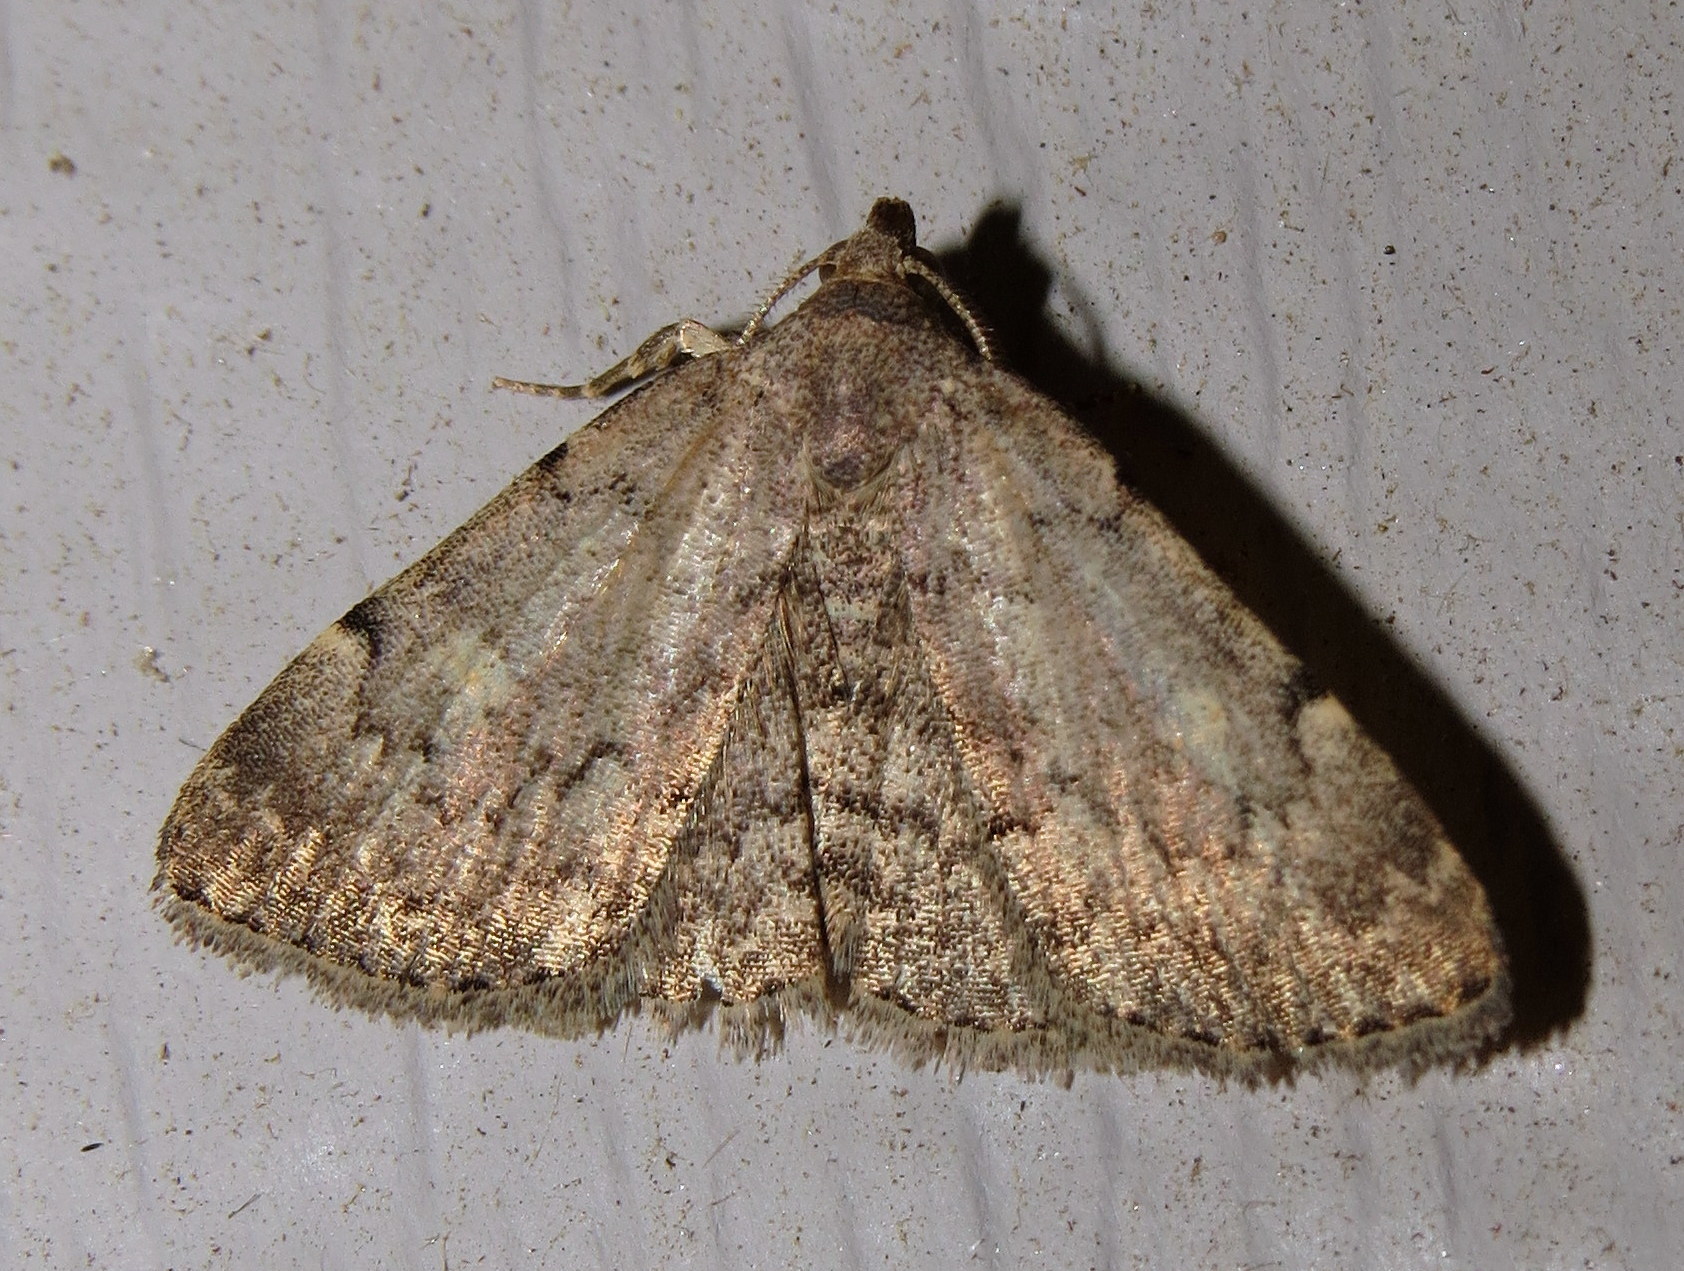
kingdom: Animalia
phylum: Arthropoda
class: Insecta
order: Lepidoptera
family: Erebidae
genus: Idia
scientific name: Idia aemula
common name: Common idia moth
